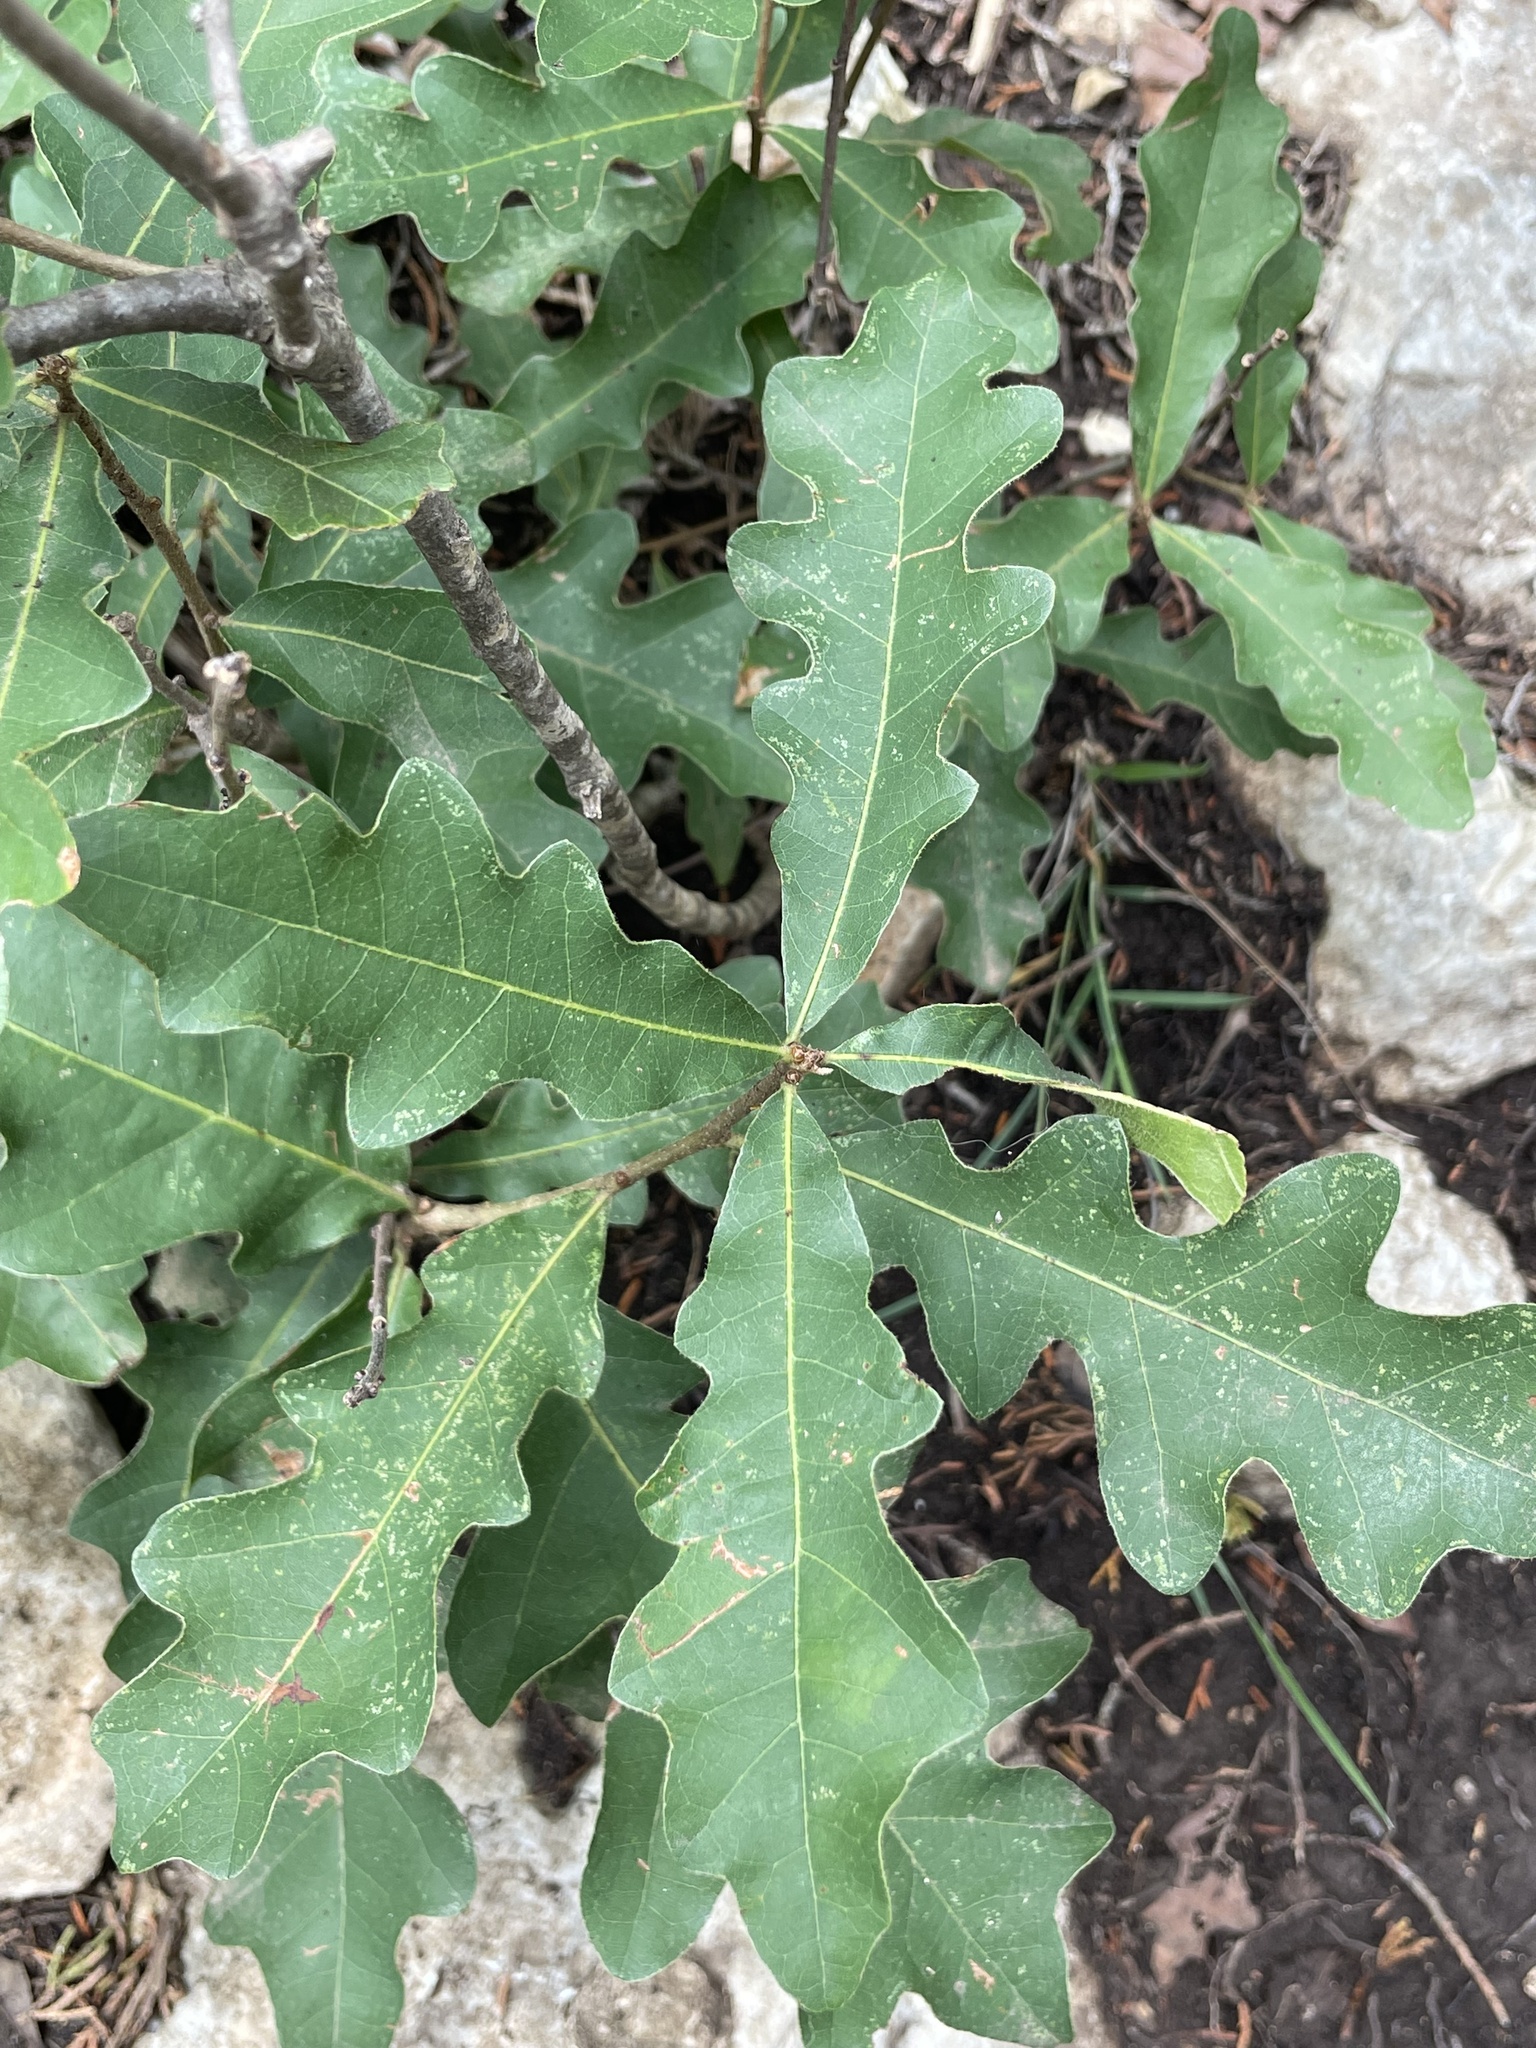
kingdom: Plantae
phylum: Tracheophyta
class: Magnoliopsida
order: Fagales
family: Fagaceae
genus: Quercus
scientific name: Quercus sinuata
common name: Durand oak
